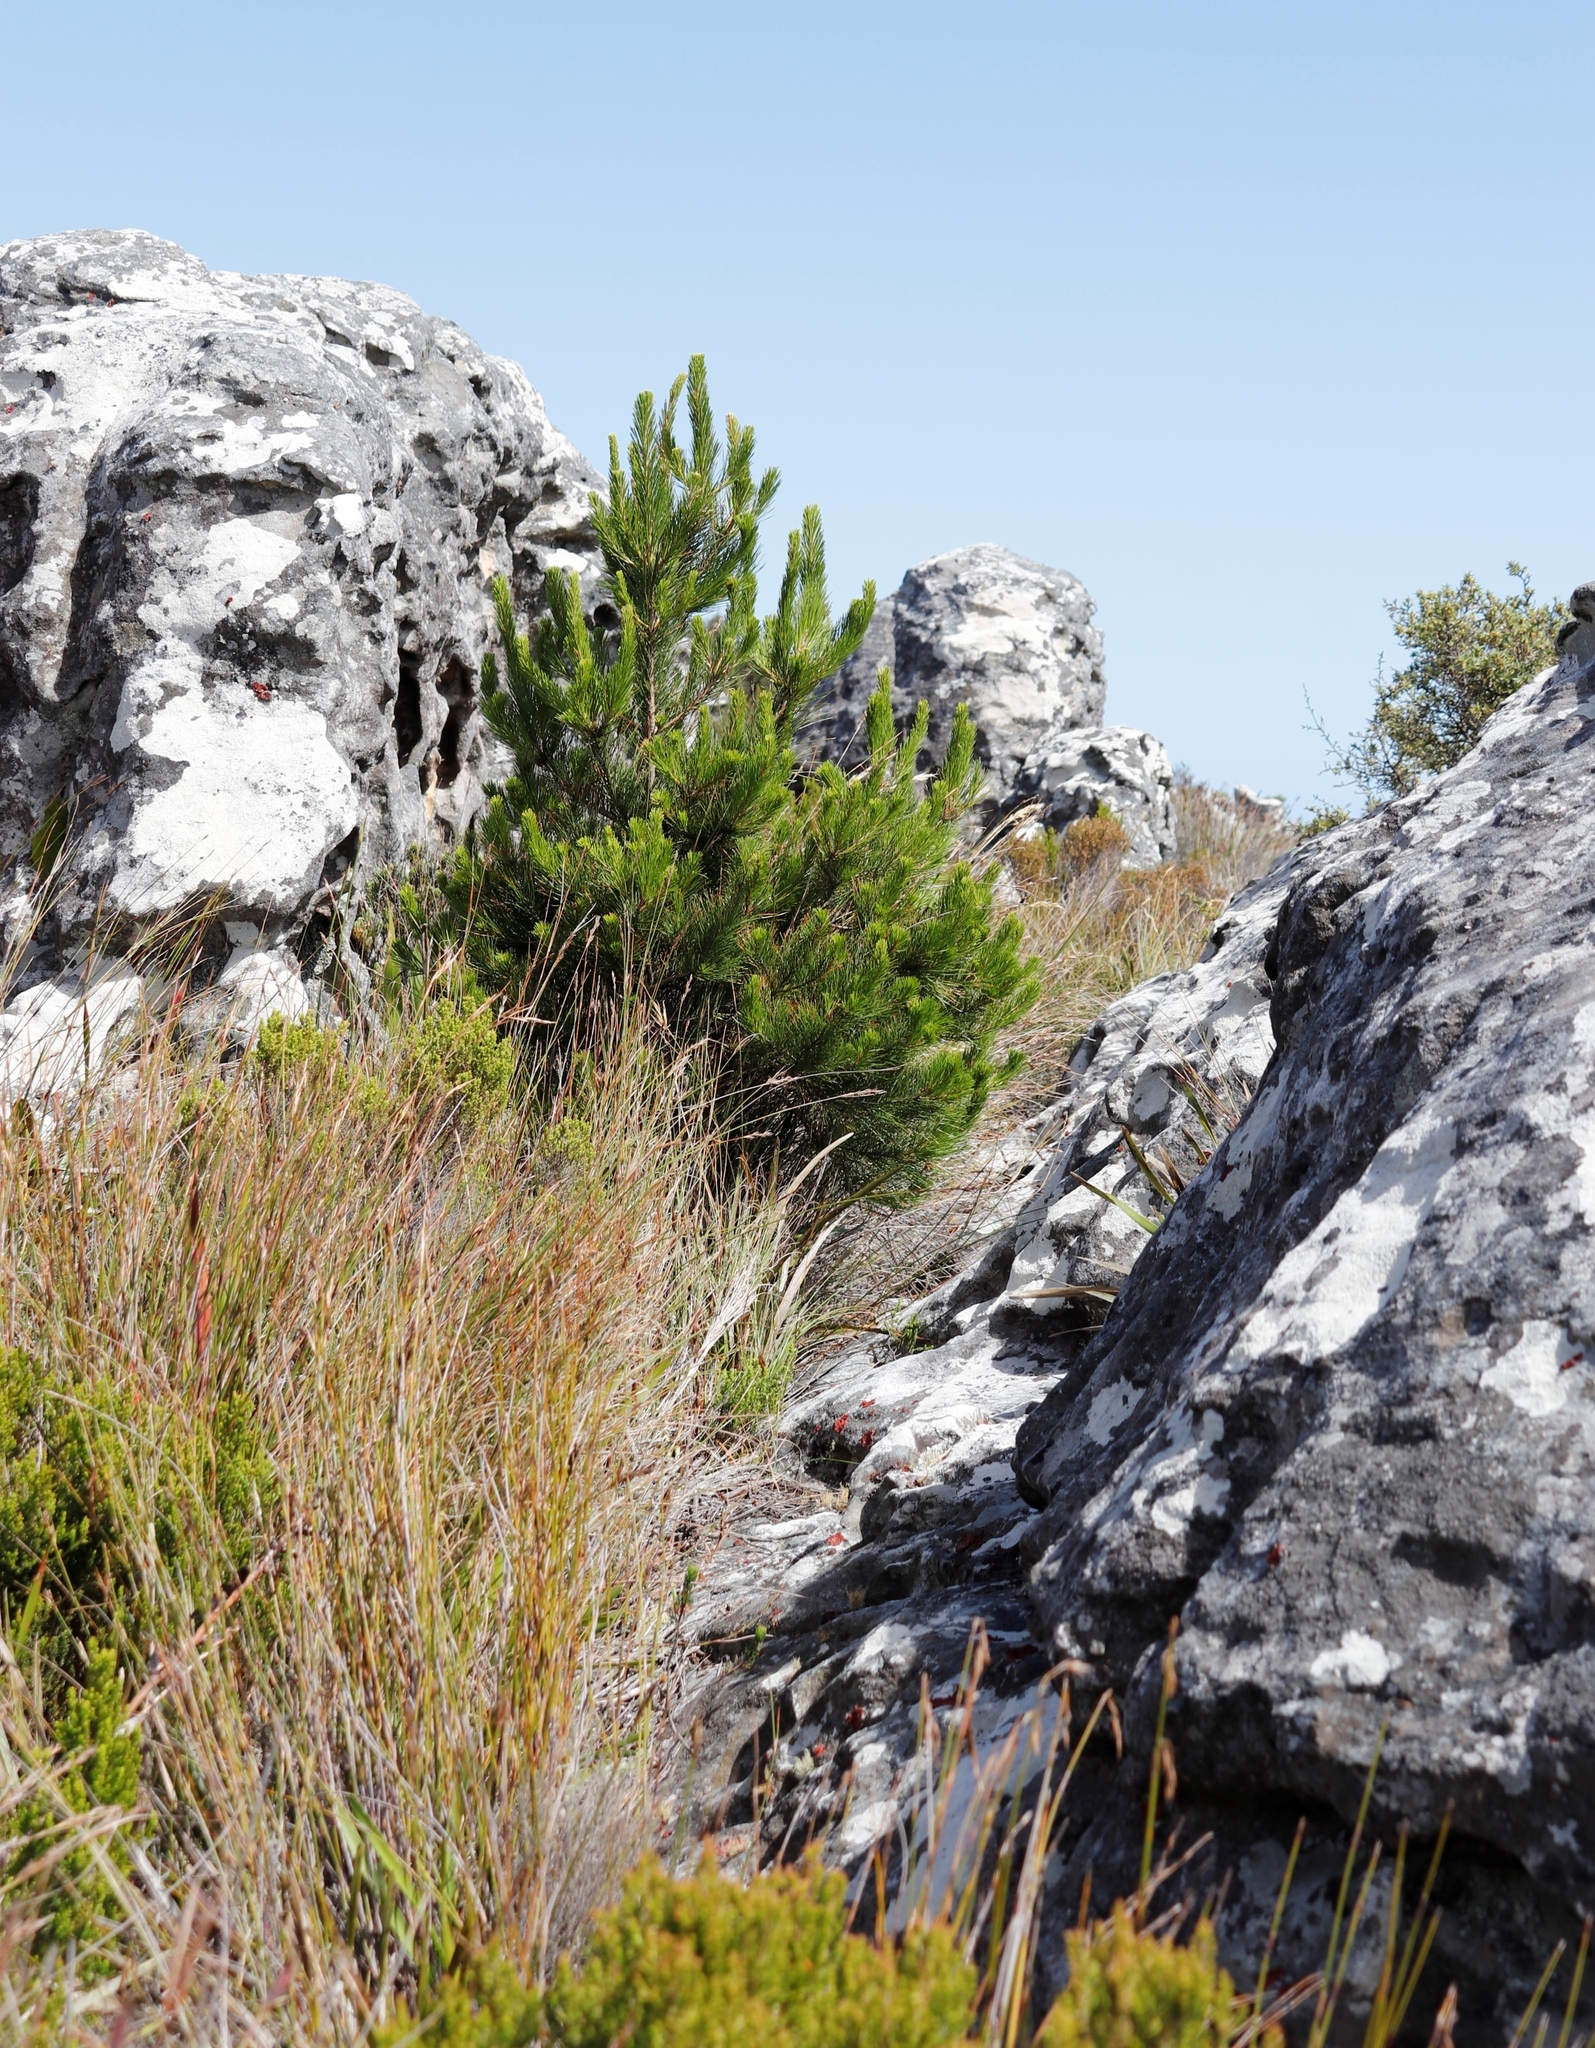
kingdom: Plantae
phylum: Tracheophyta
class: Pinopsida
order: Pinales
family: Pinaceae
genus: Pinus
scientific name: Pinus radiata
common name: Monterey pine
